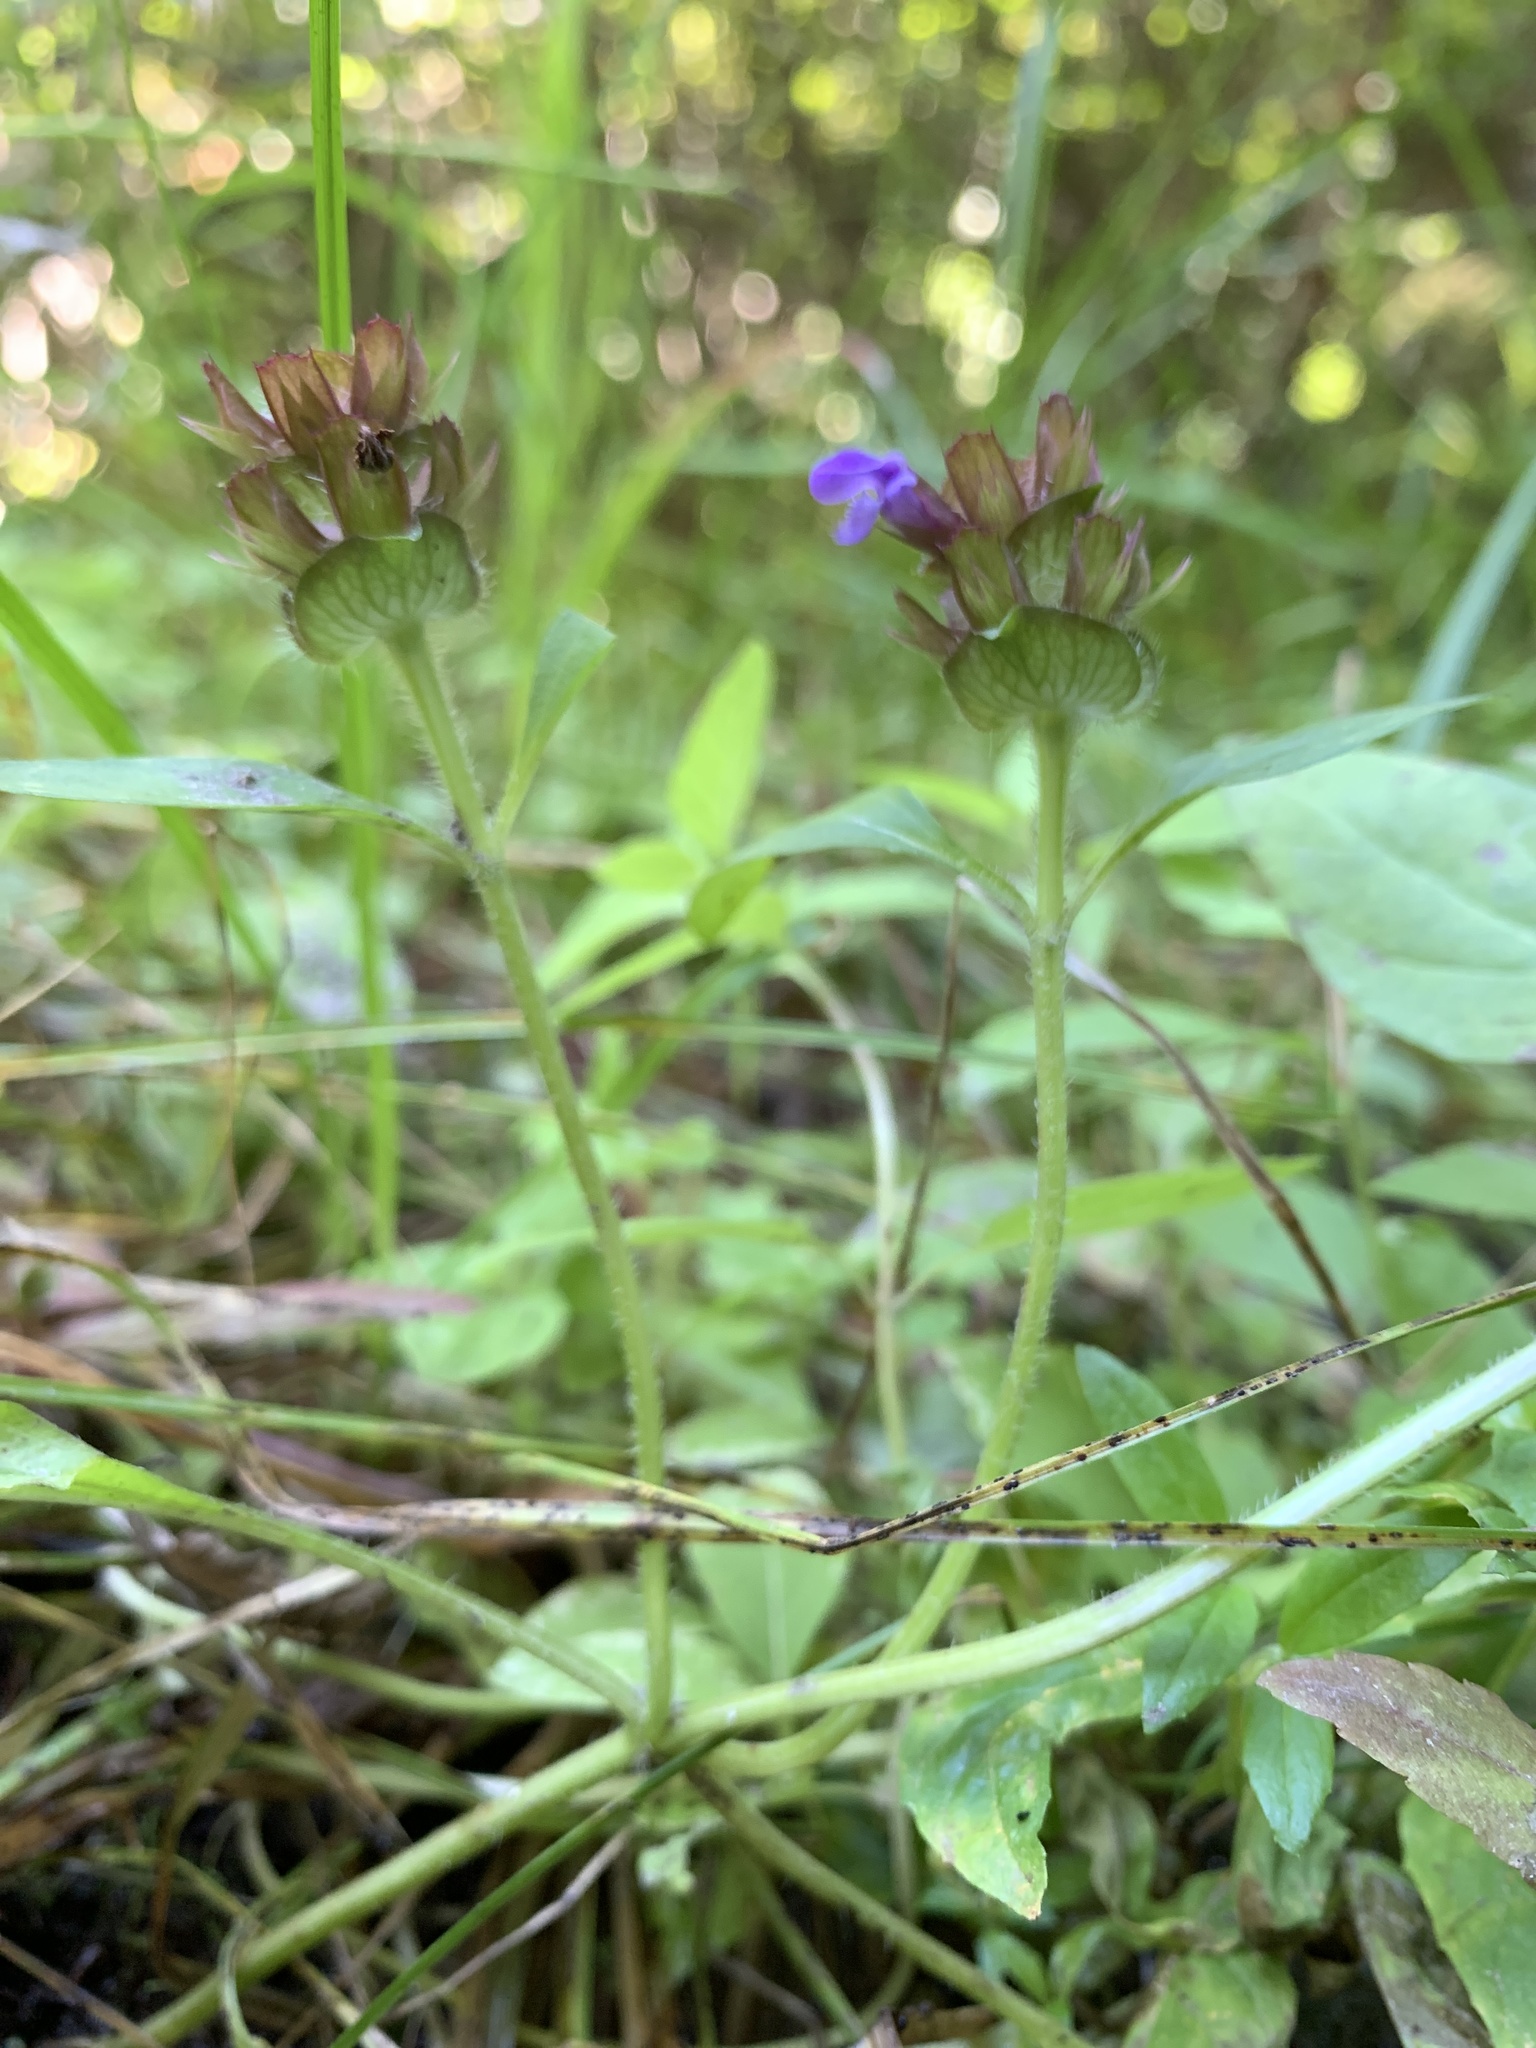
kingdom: Plantae
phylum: Tracheophyta
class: Magnoliopsida
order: Lamiales
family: Lamiaceae
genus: Prunella
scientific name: Prunella vulgaris
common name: Heal-all
